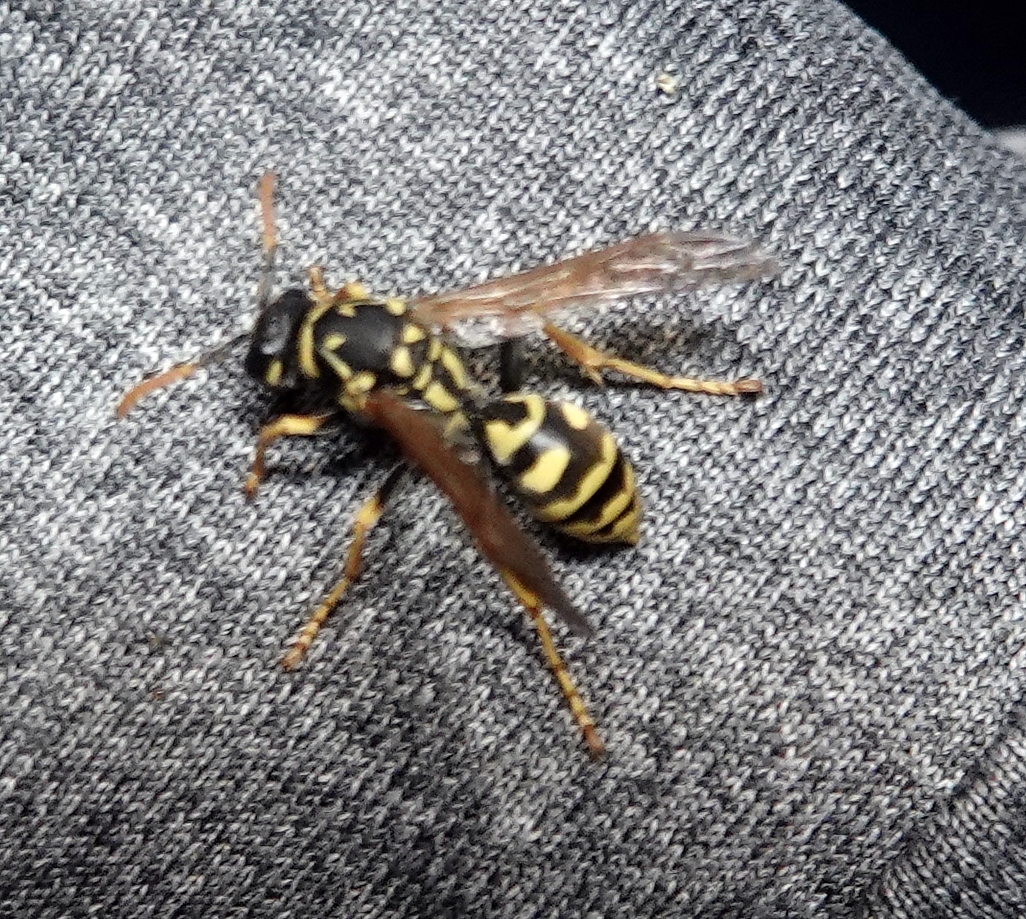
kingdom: Animalia
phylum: Arthropoda
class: Insecta
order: Hymenoptera
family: Eumenidae
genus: Polistes
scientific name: Polistes dominula
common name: Paper wasp
